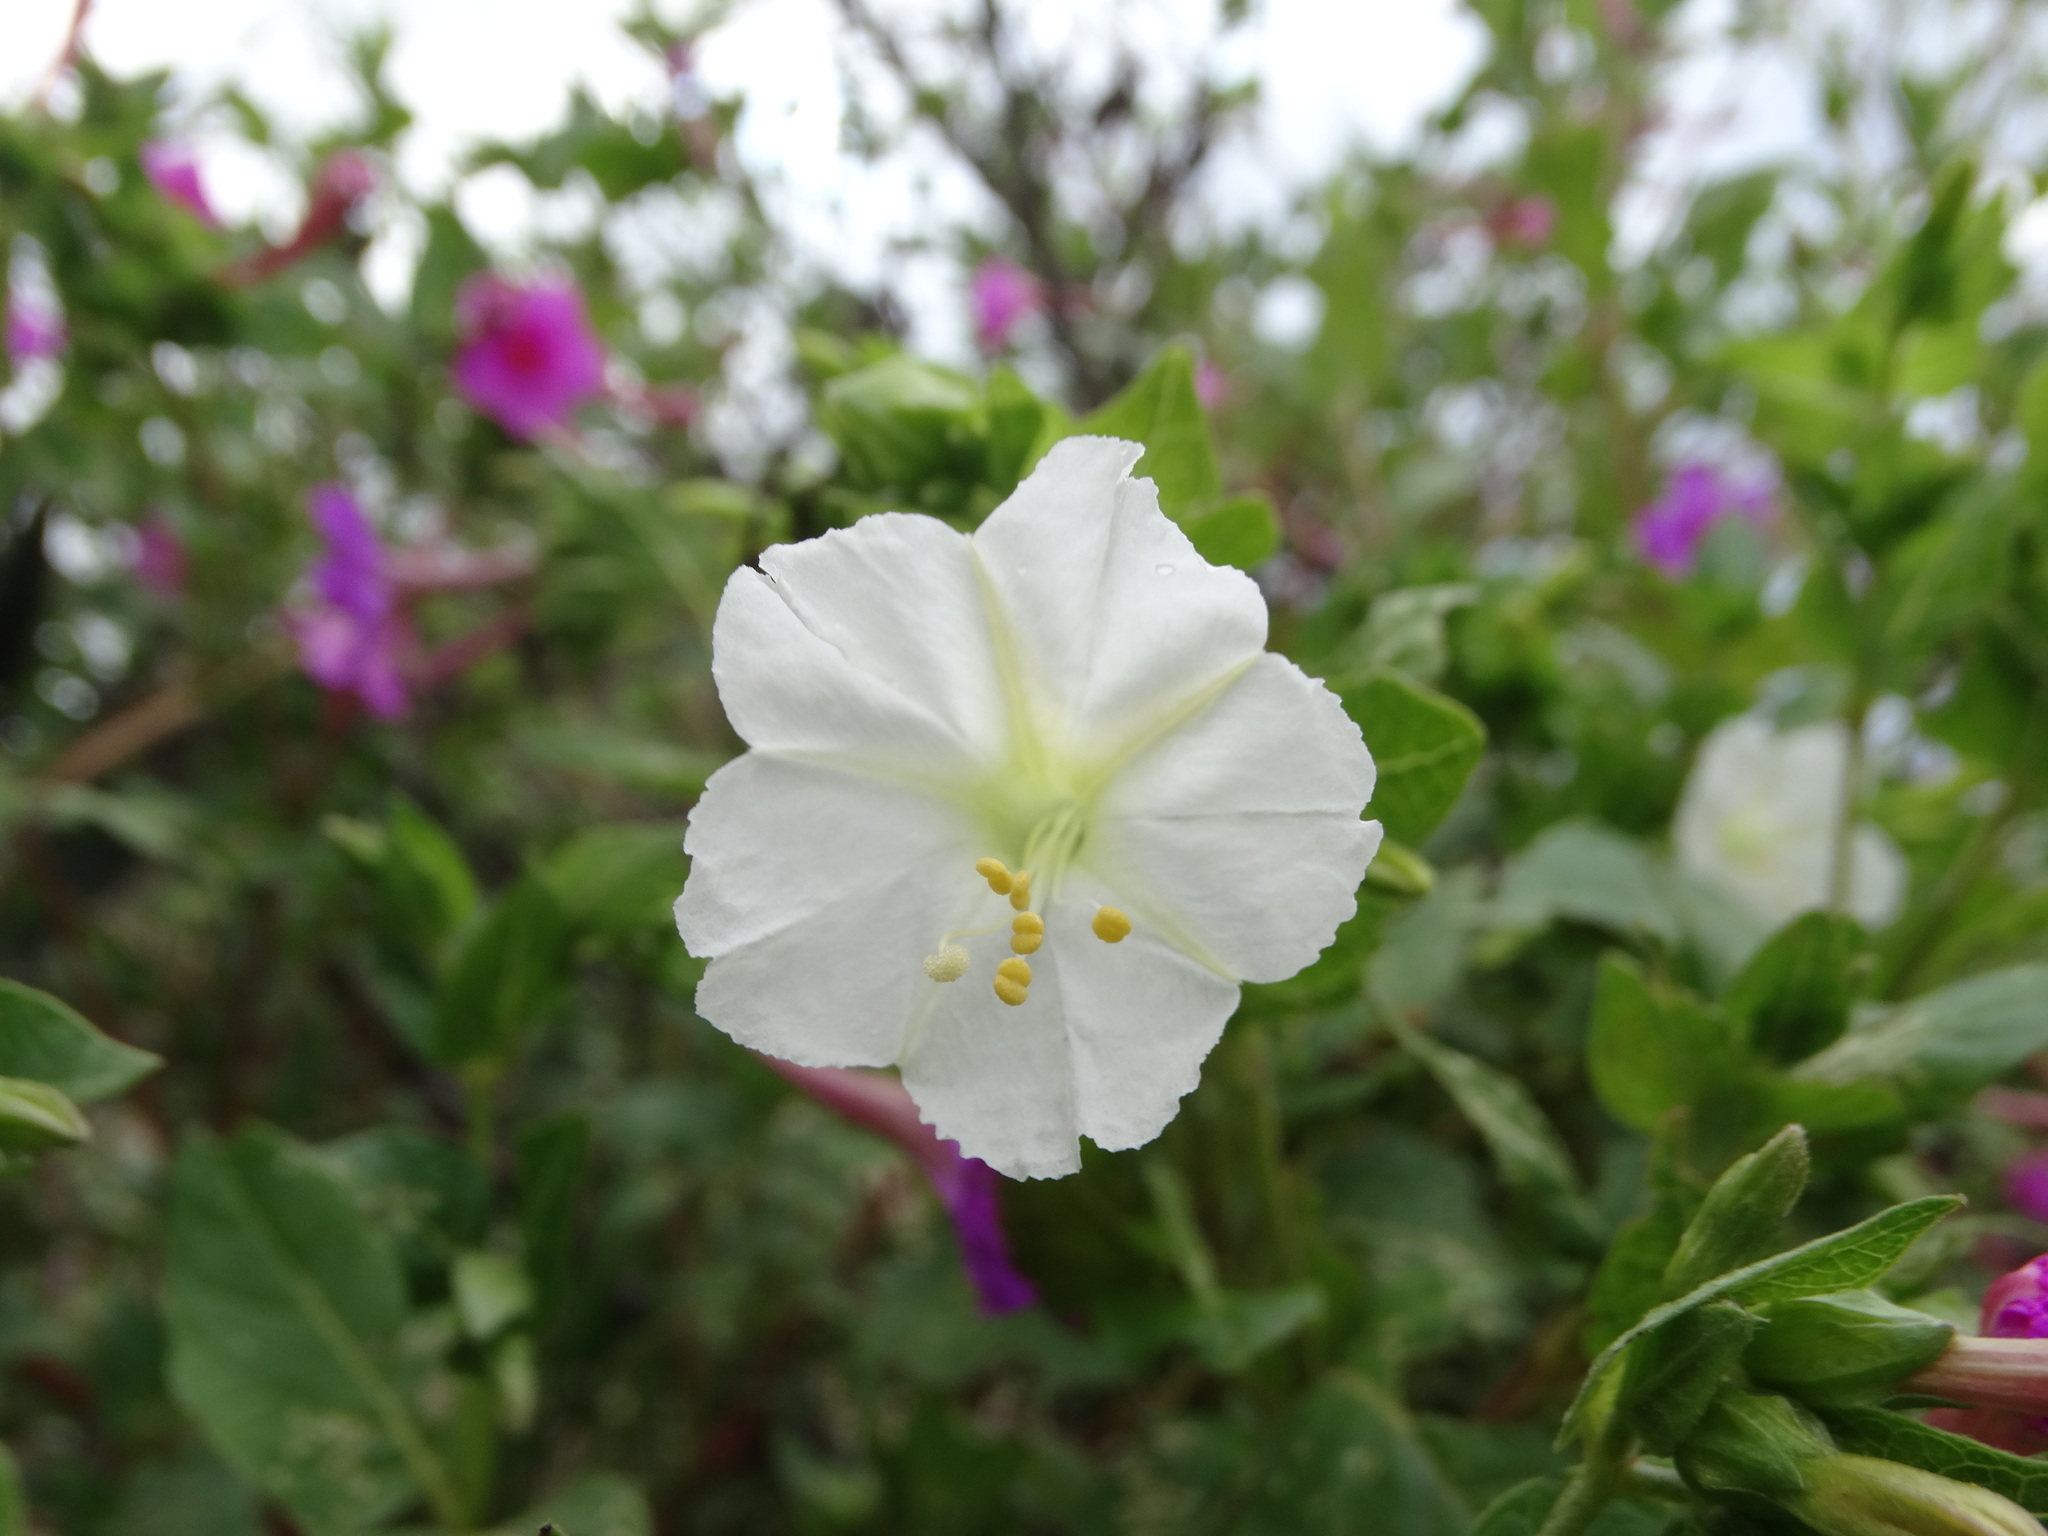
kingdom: Plantae
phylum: Tracheophyta
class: Magnoliopsida
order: Caryophyllales
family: Nyctaginaceae
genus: Mirabilis
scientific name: Mirabilis jalapa
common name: Marvel-of-peru
